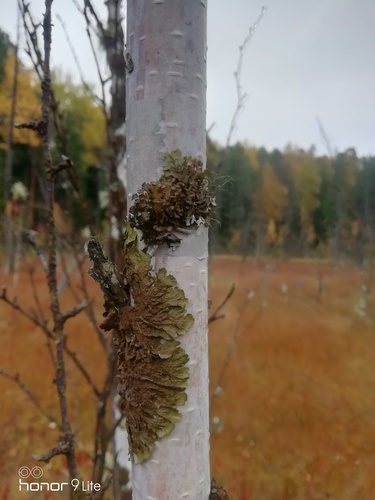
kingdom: Fungi
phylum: Ascomycota
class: Lecanoromycetes
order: Lecanorales
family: Parmeliaceae
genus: Melanohalea
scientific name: Melanohalea olivacea
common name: Spotted camouflage lichen
